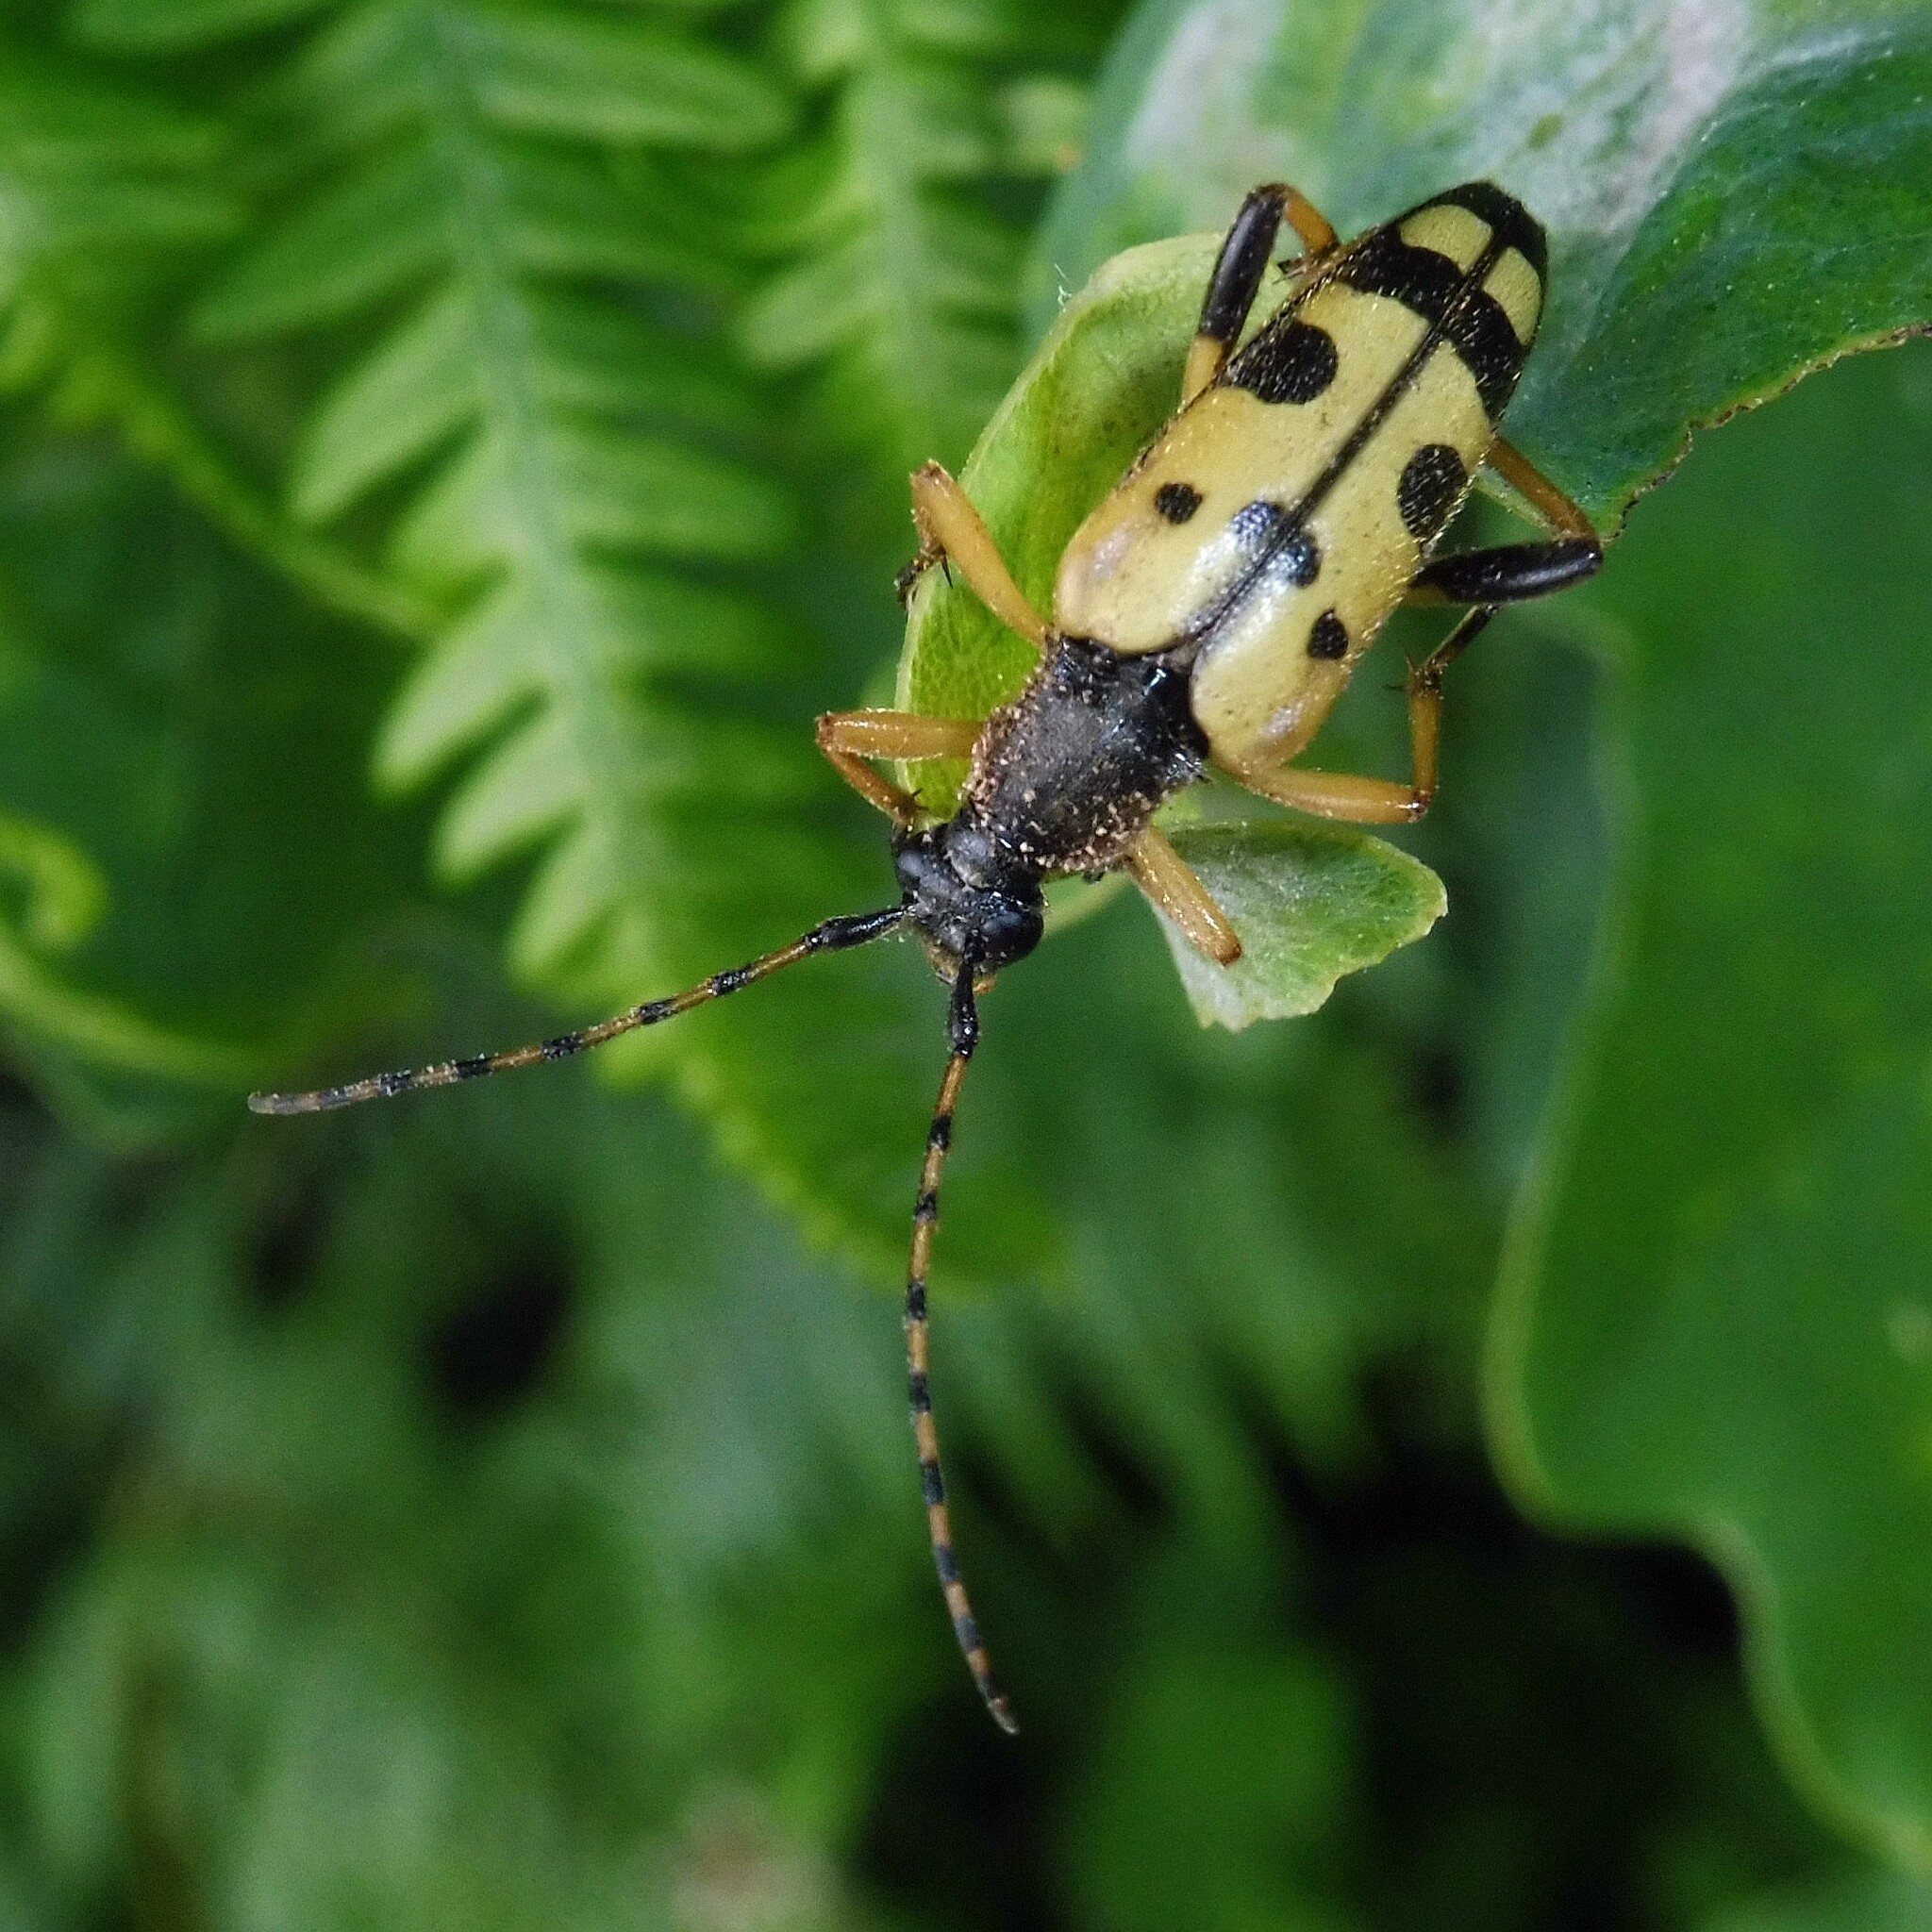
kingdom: Animalia
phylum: Arthropoda
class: Insecta
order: Coleoptera
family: Cerambycidae
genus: Rutpela
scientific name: Rutpela maculata
